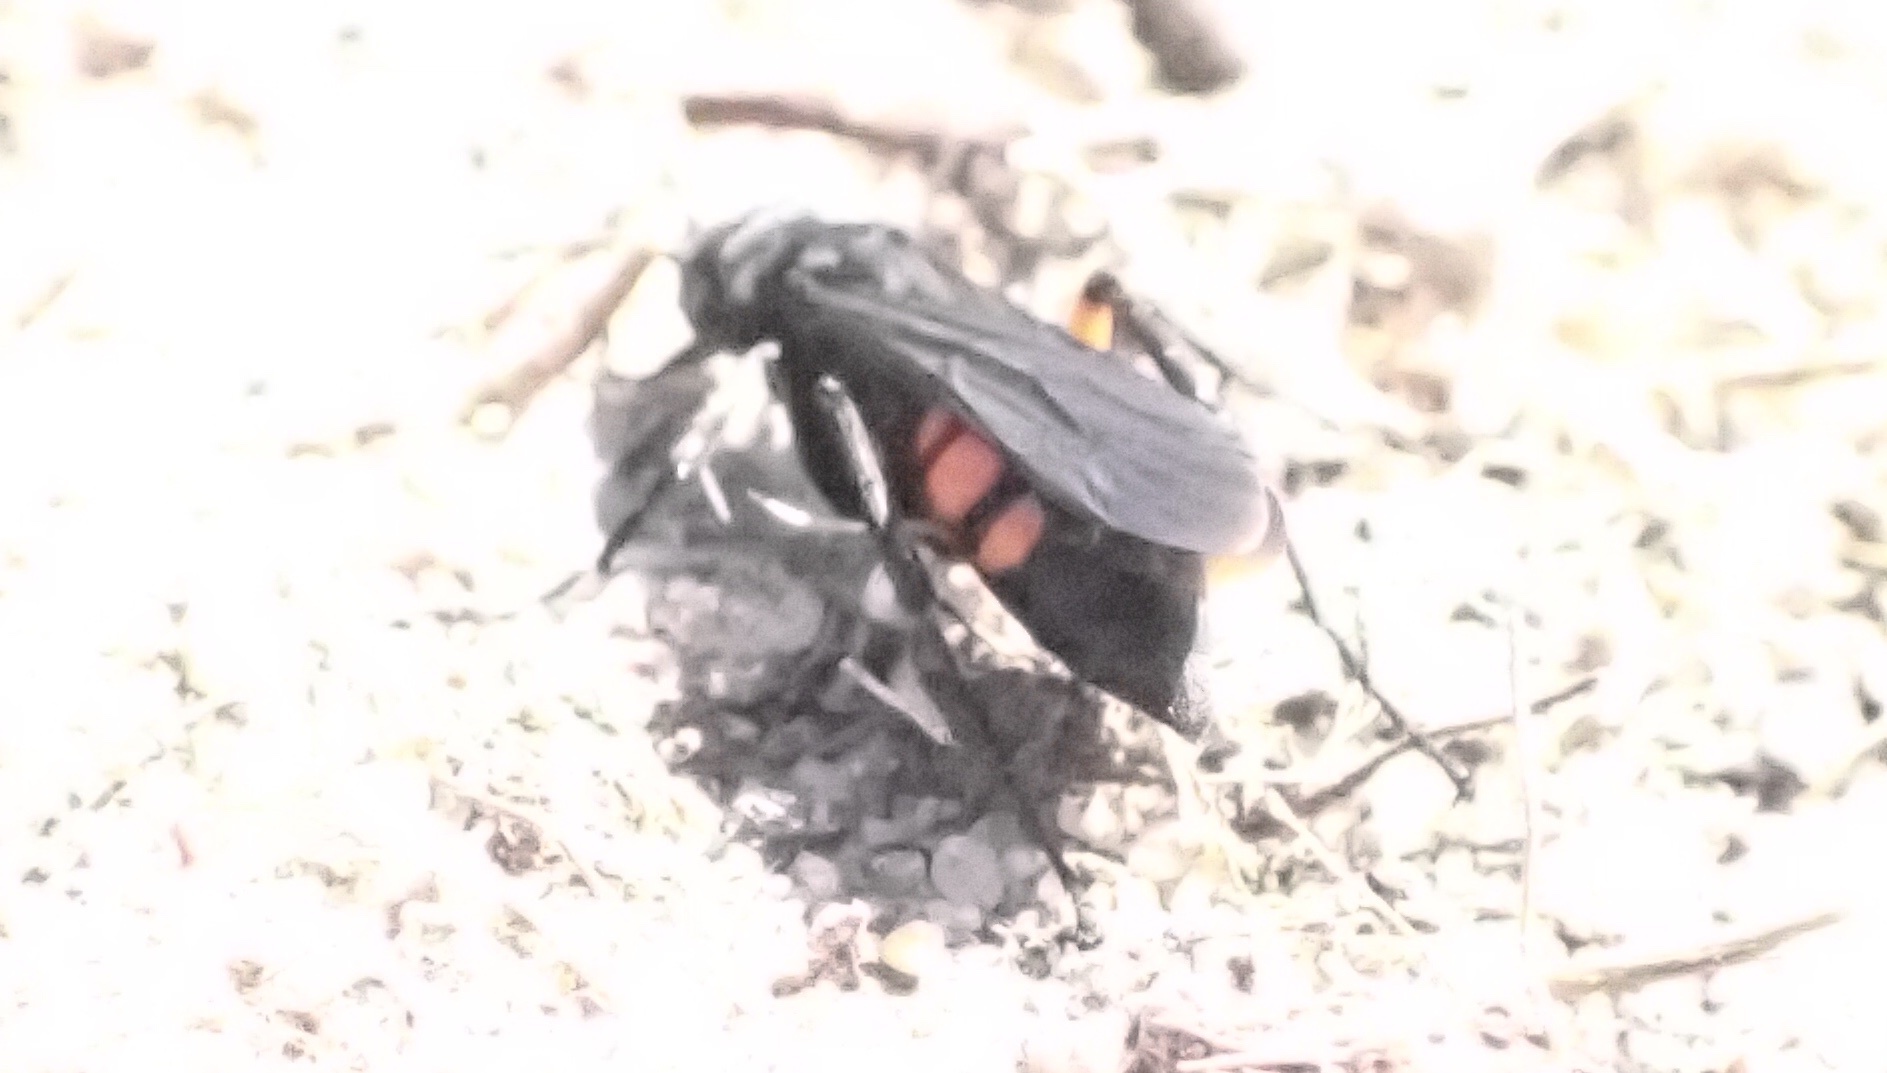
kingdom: Animalia
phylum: Arthropoda
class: Insecta
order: Hymenoptera
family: Pompilidae
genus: Anoplius
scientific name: Anoplius viaticus
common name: Black banded spider wasp
